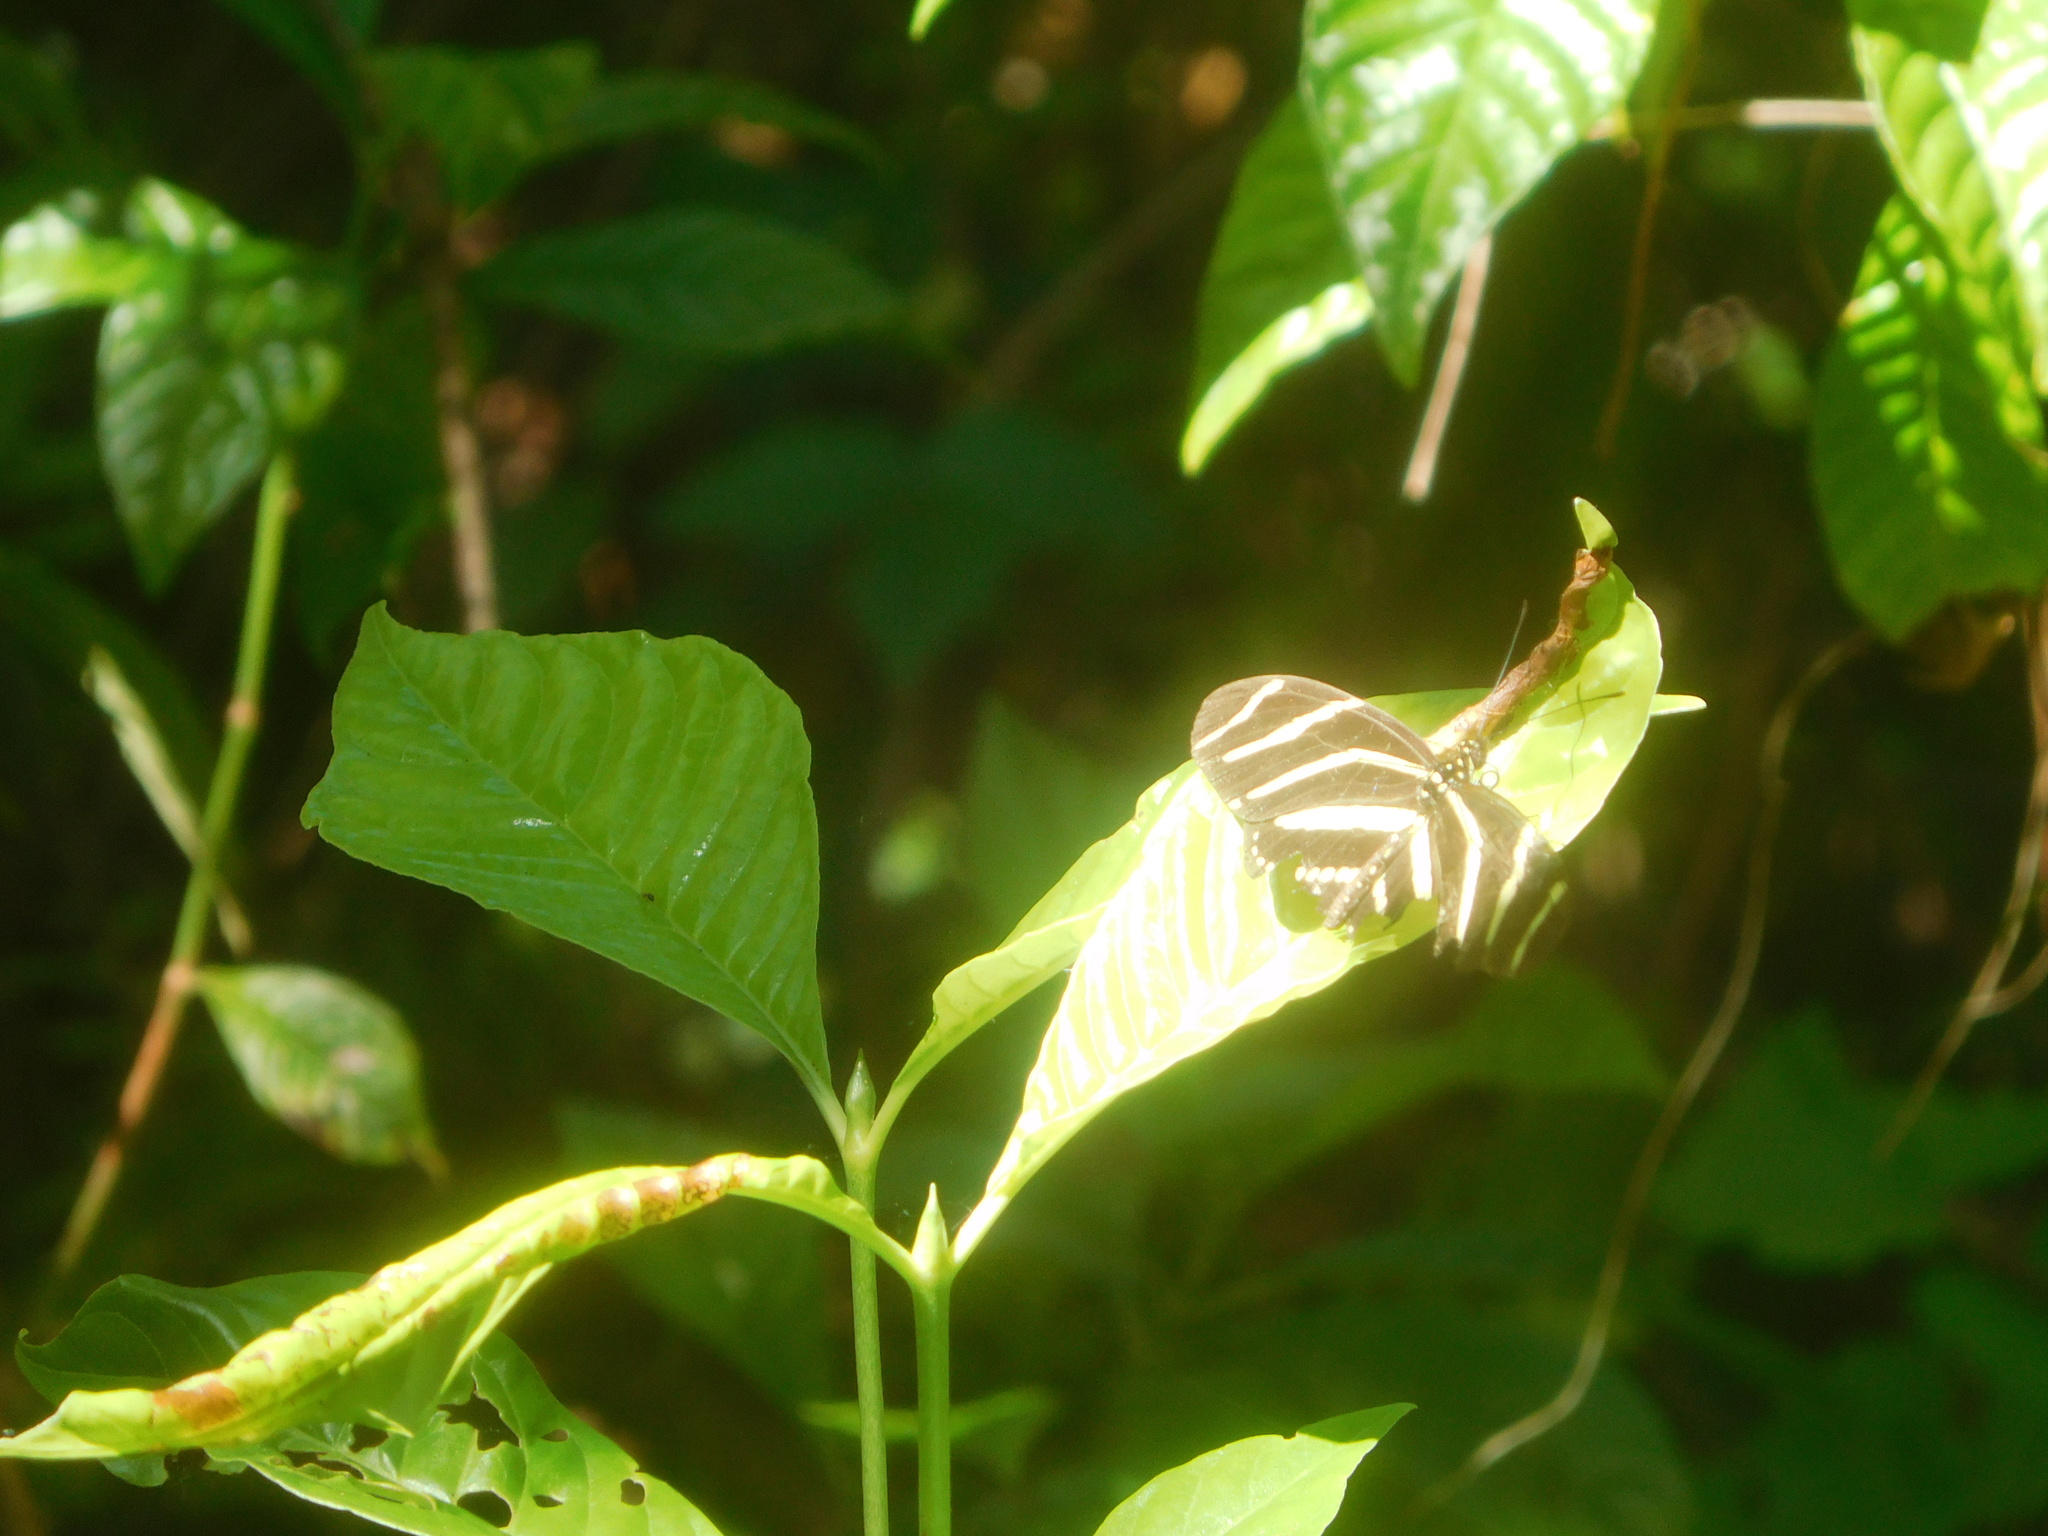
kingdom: Animalia
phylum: Arthropoda
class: Insecta
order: Lepidoptera
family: Nymphalidae
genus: Heliconius
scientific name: Heliconius charithonia
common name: Zebra long wing
